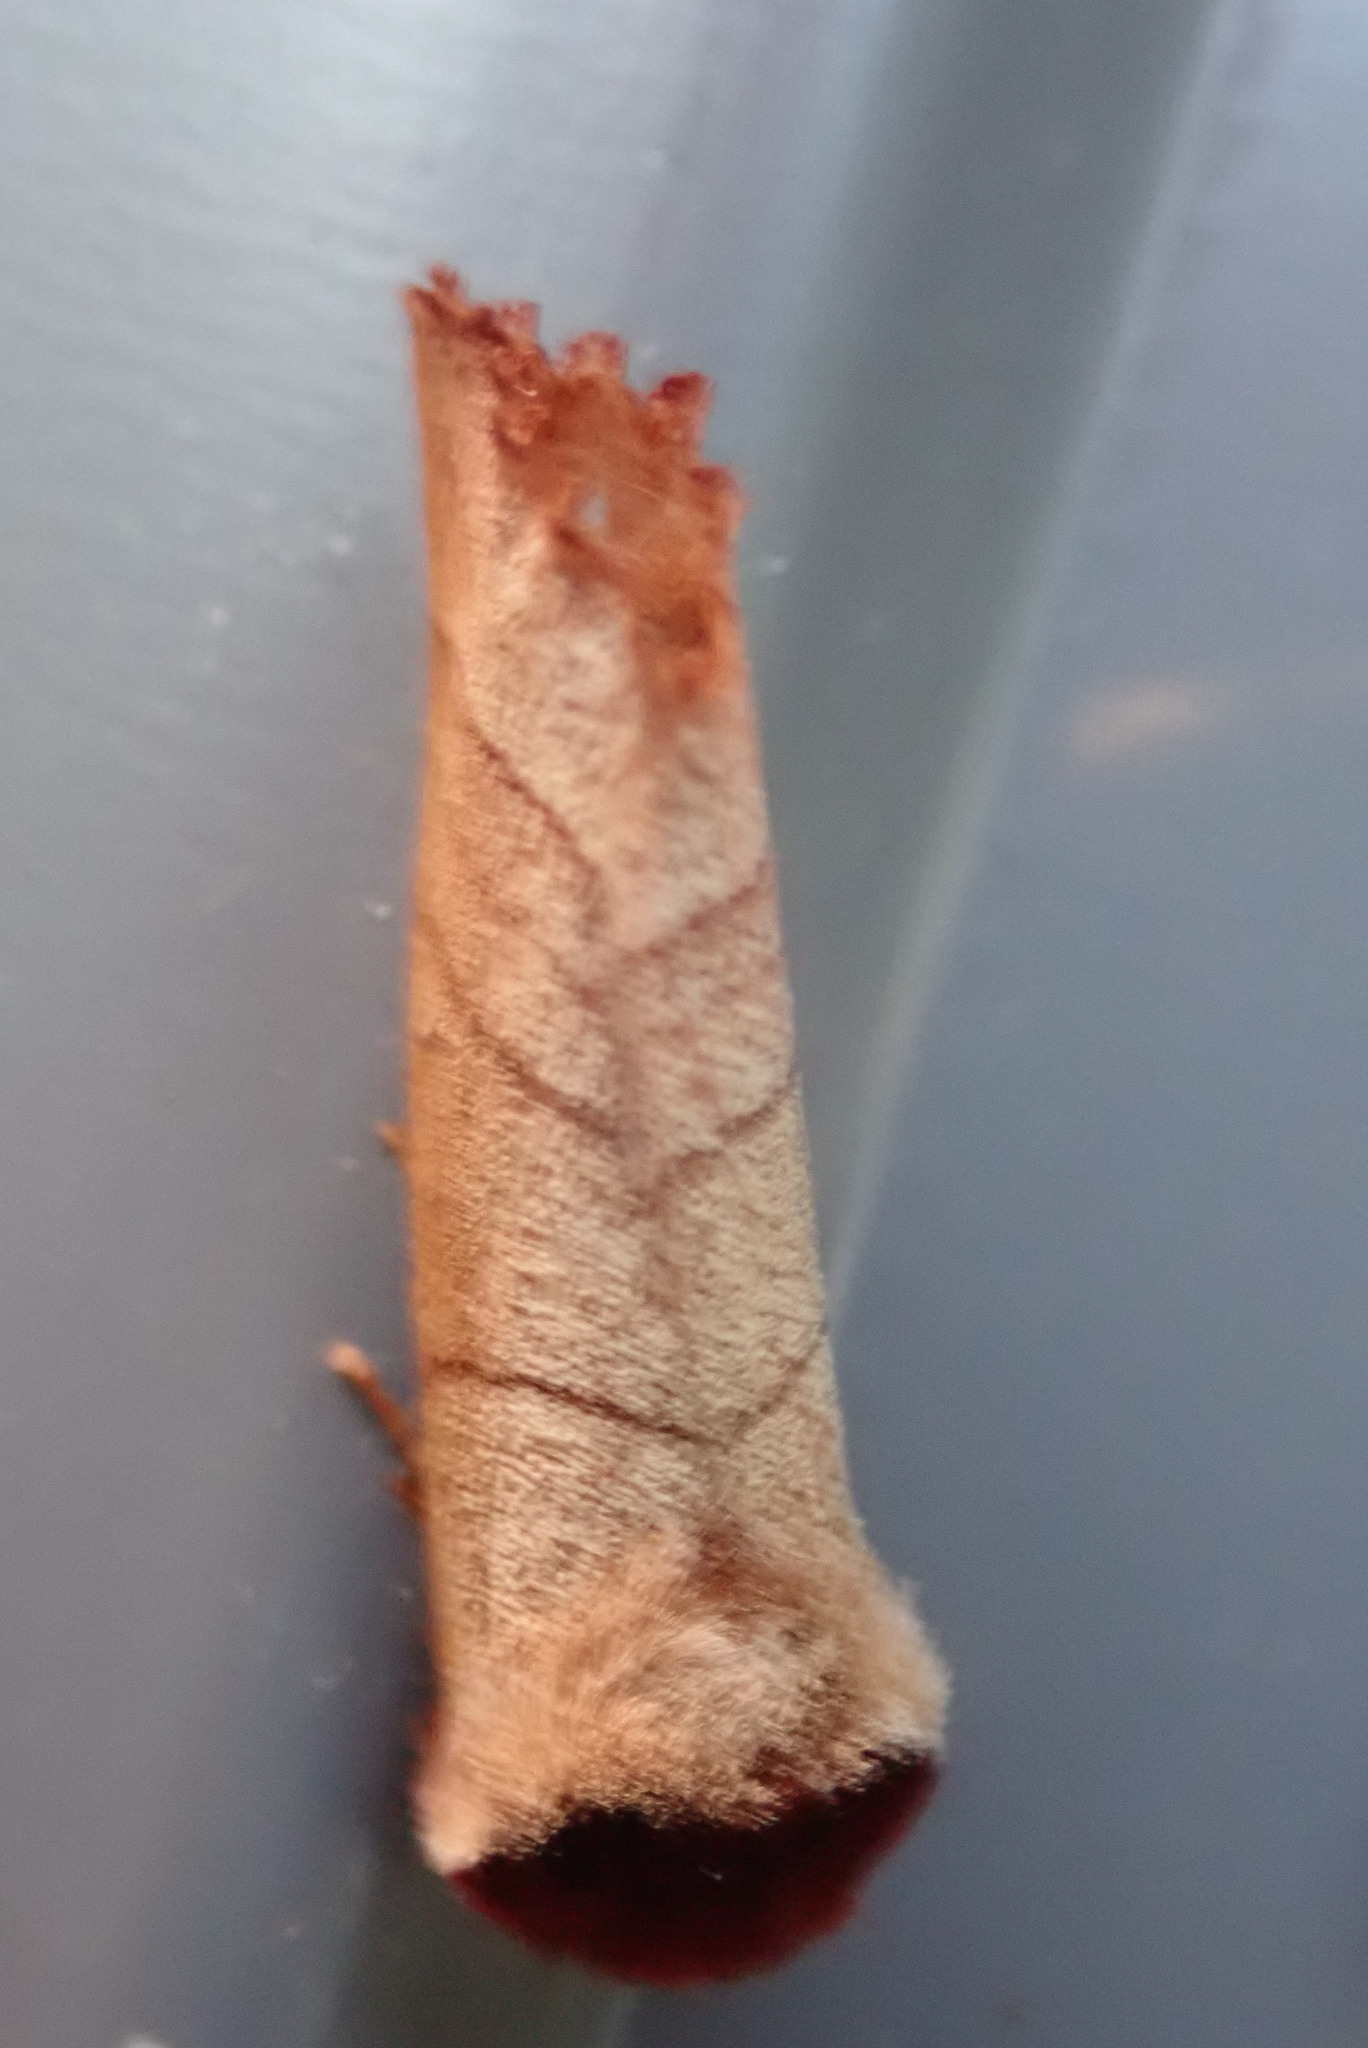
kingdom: Animalia
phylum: Arthropoda
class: Insecta
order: Lepidoptera
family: Notodontidae
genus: Datana
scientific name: Datana ministra
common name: Yellow-necked caterpillar moth
